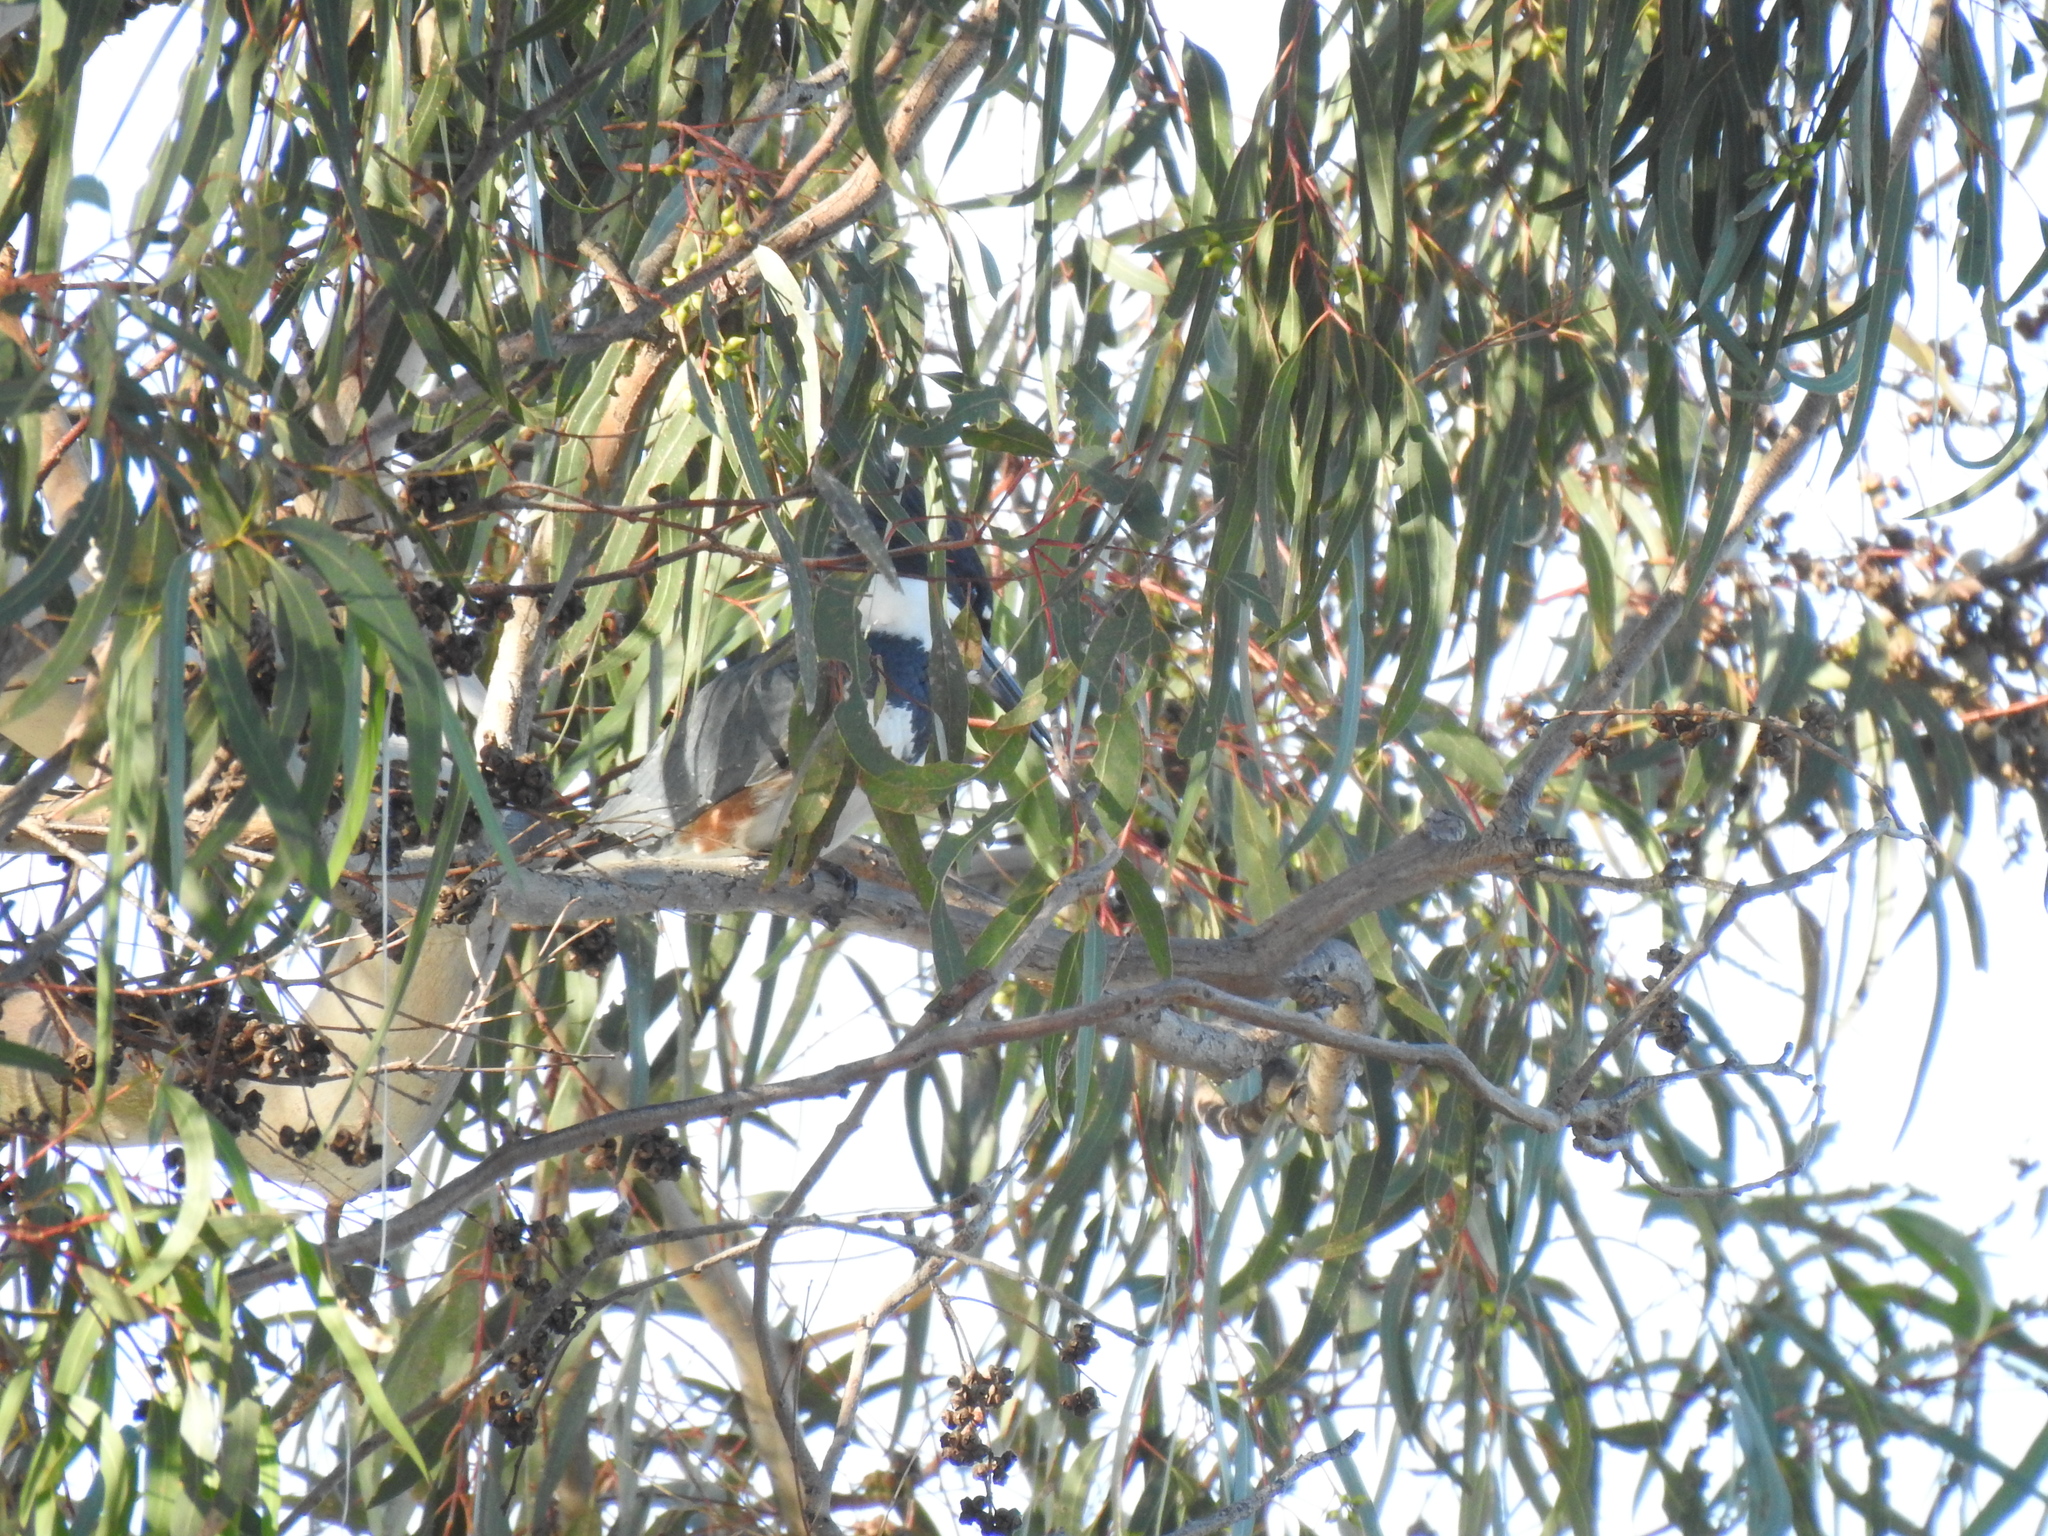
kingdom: Animalia
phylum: Chordata
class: Aves
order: Coraciiformes
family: Alcedinidae
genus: Megaceryle
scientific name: Megaceryle alcyon
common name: Belted kingfisher
